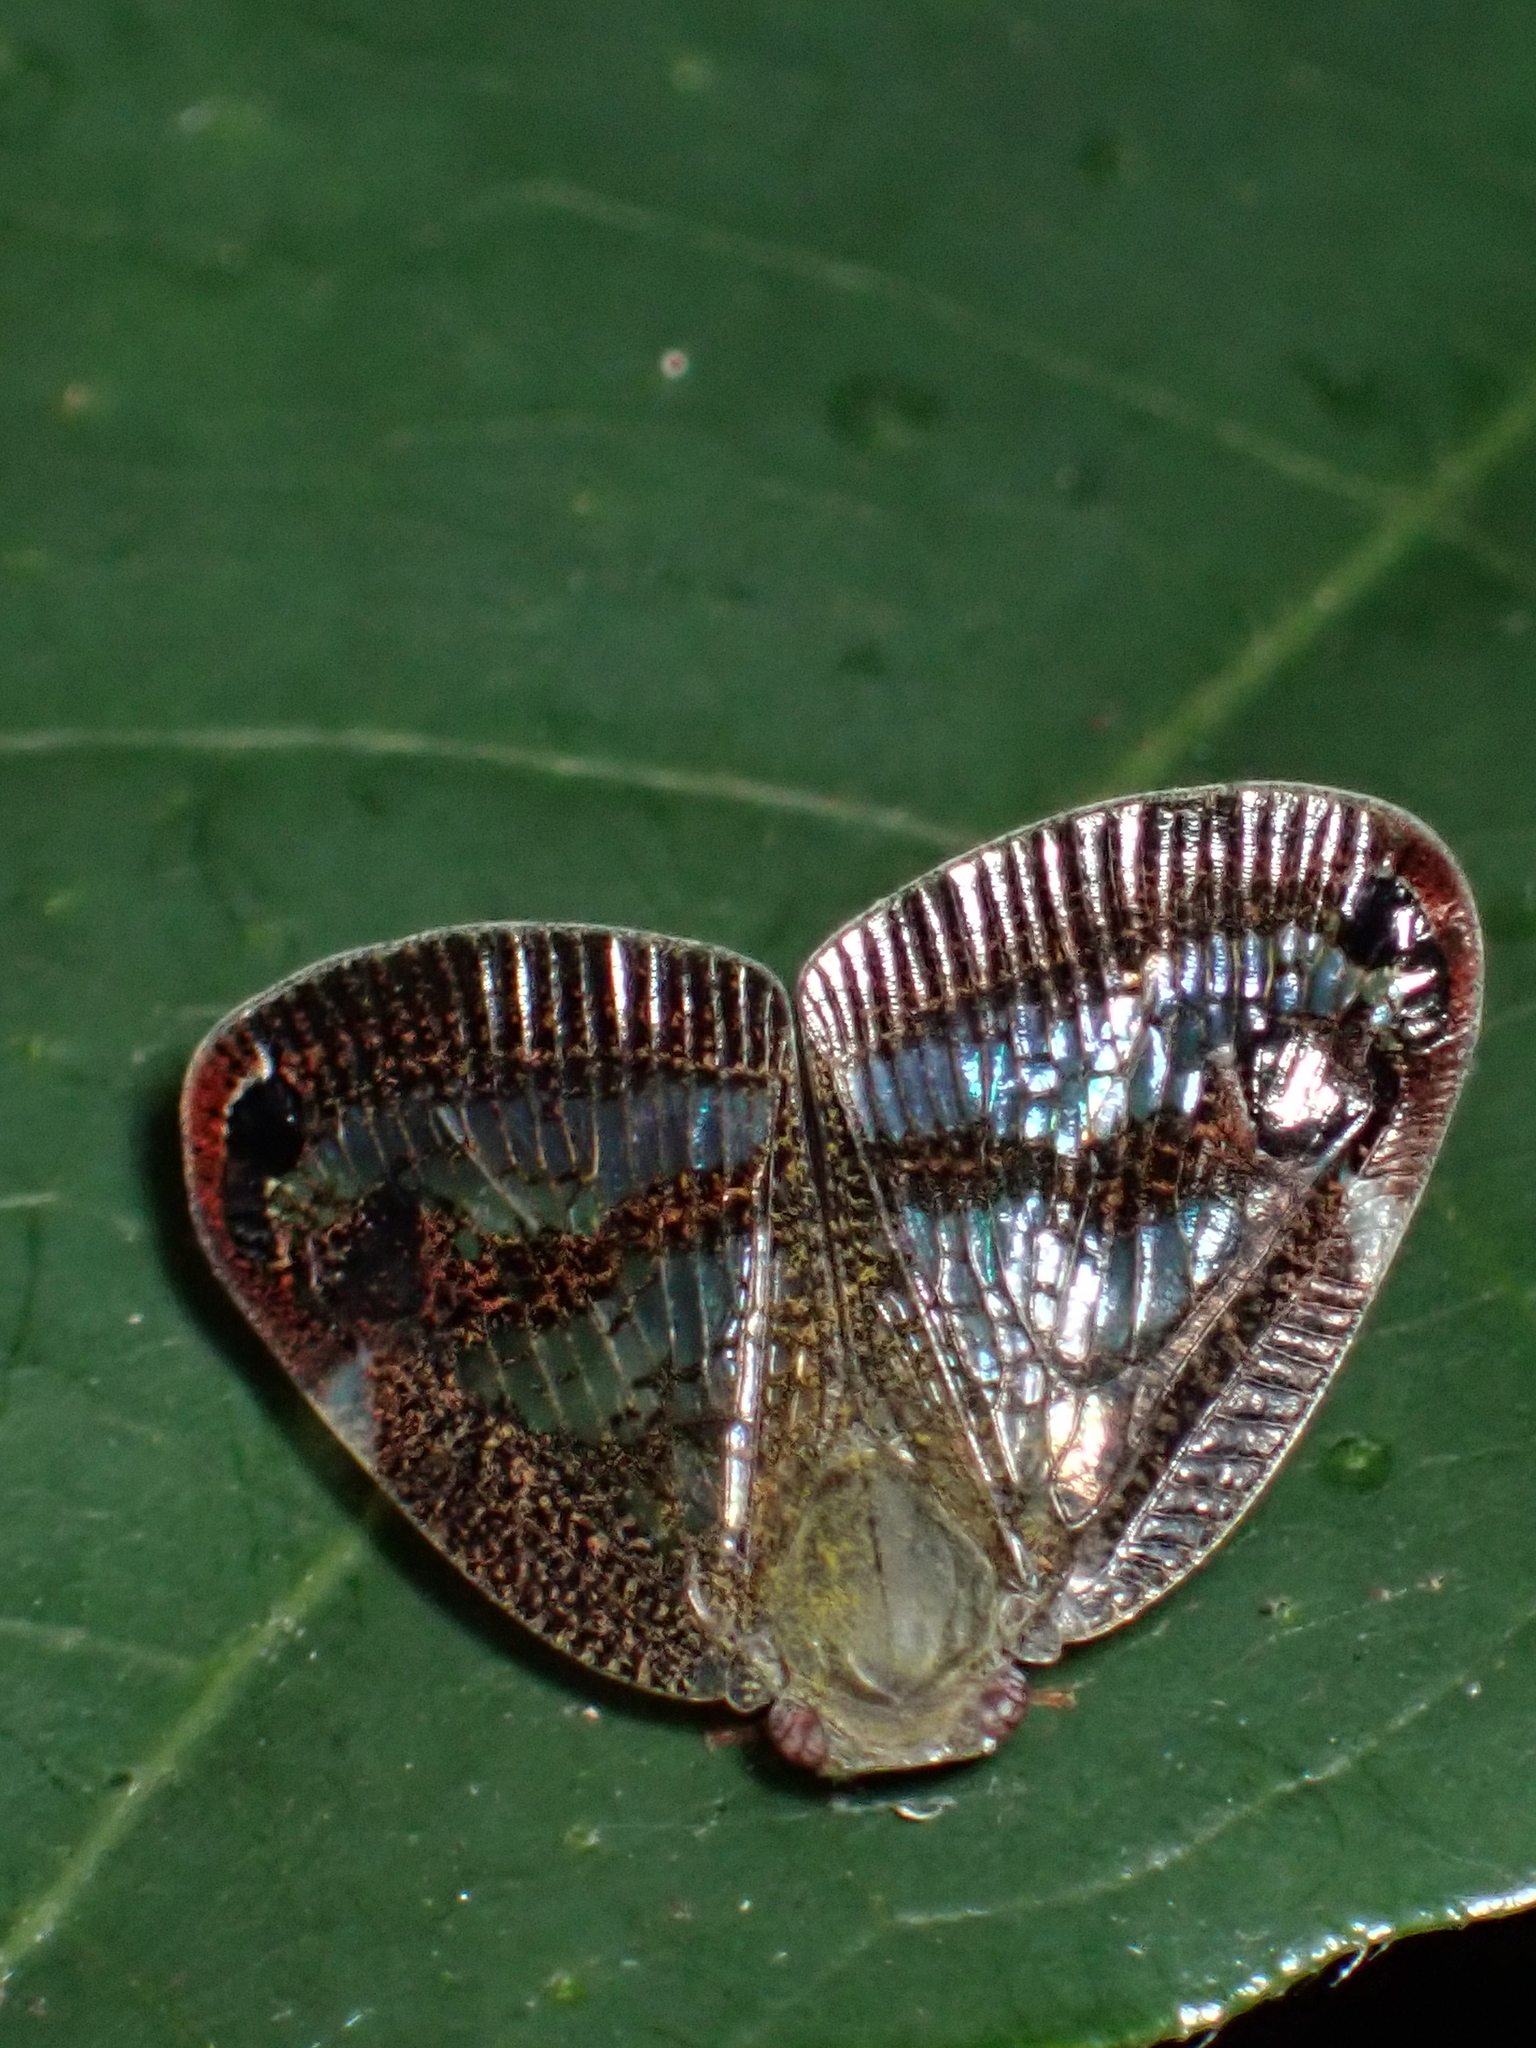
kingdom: Animalia
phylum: Arthropoda
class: Insecta
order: Hemiptera
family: Ricaniidae
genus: Parapiromis
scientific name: Parapiromis translucida
